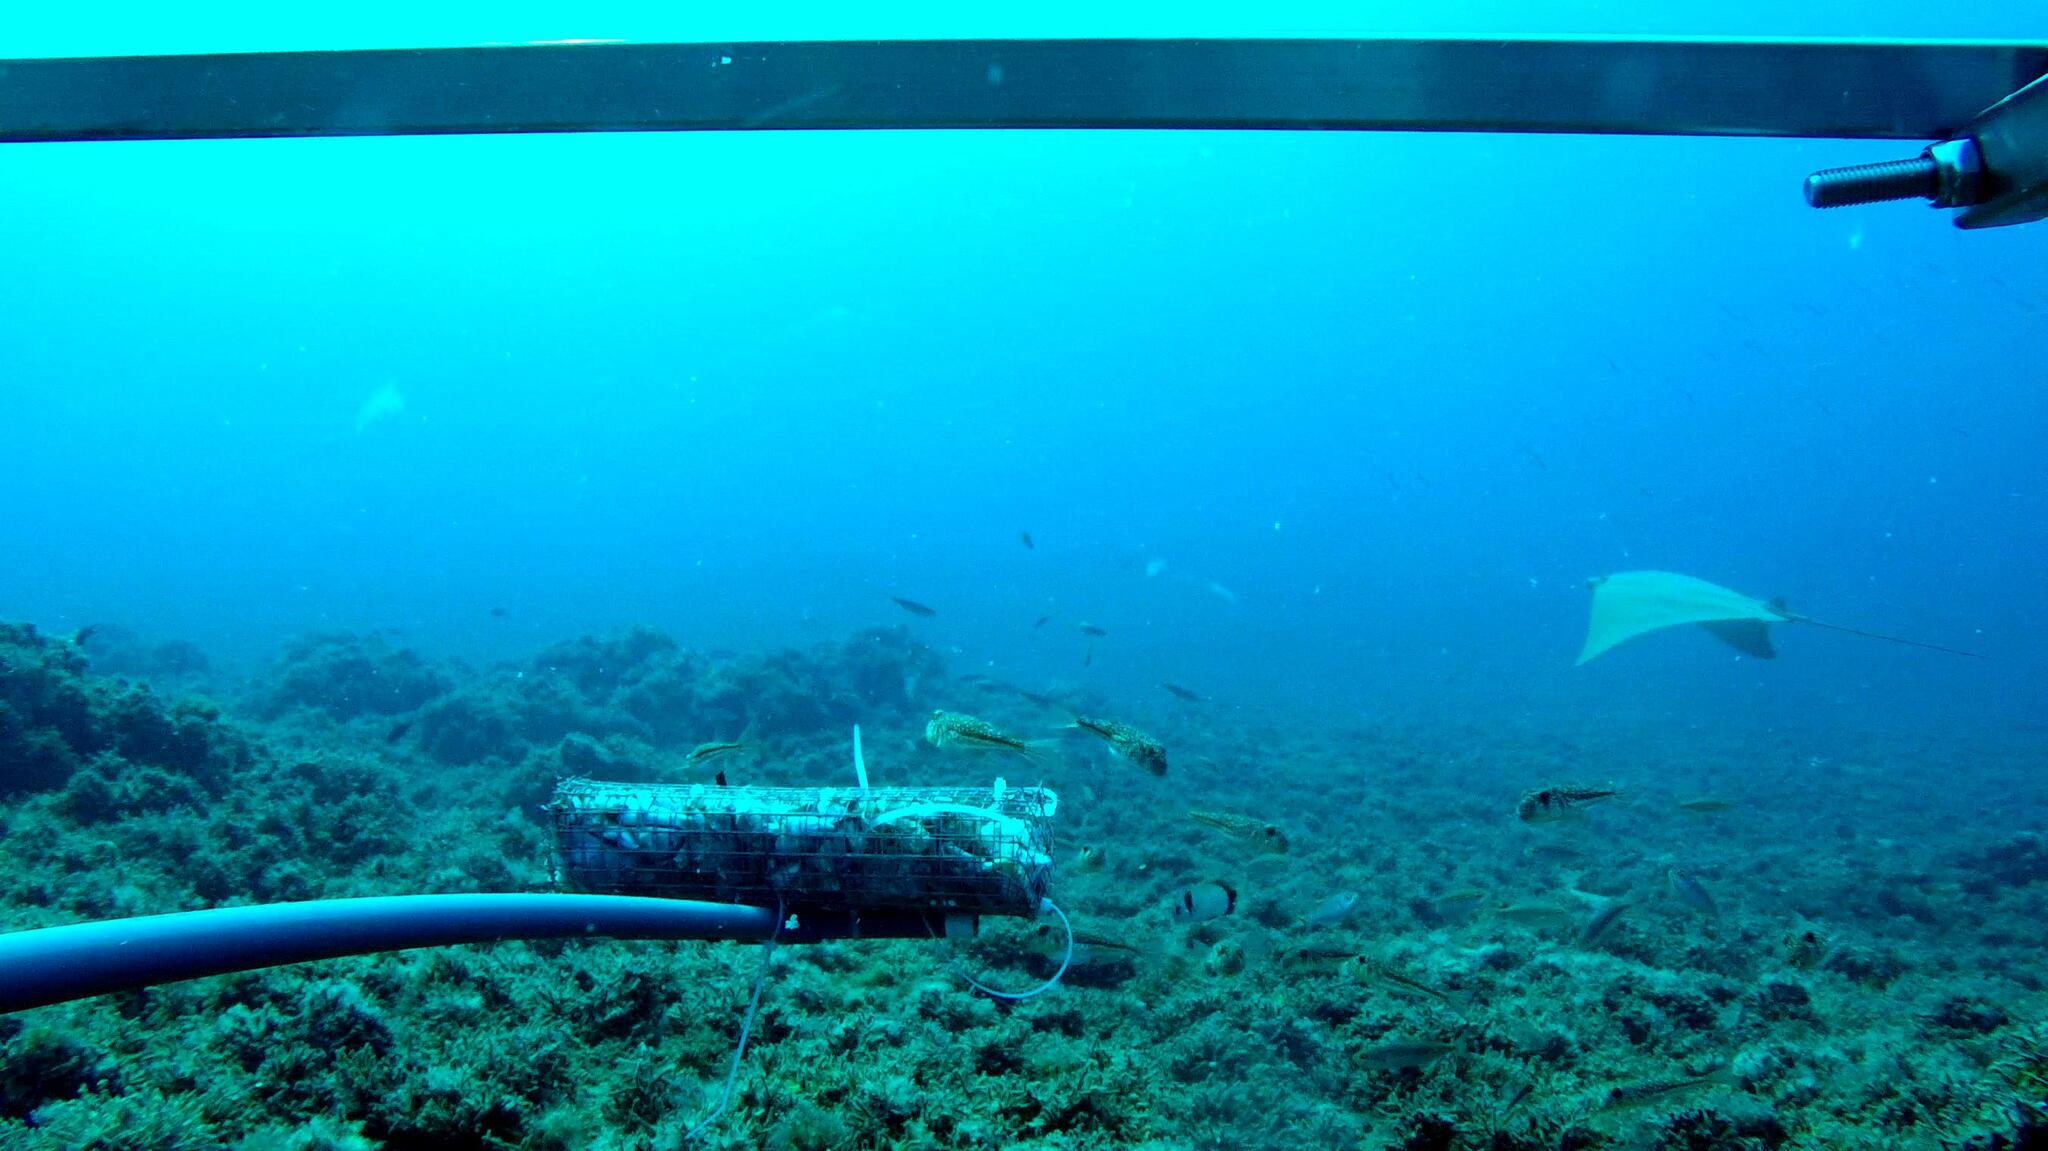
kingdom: Animalia
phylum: Chordata
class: Elasmobranchii
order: Myliobatiformes
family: Myliobatidae
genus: Rhinoptera
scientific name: Rhinoptera marginata
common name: Lusitanian cownose ray
